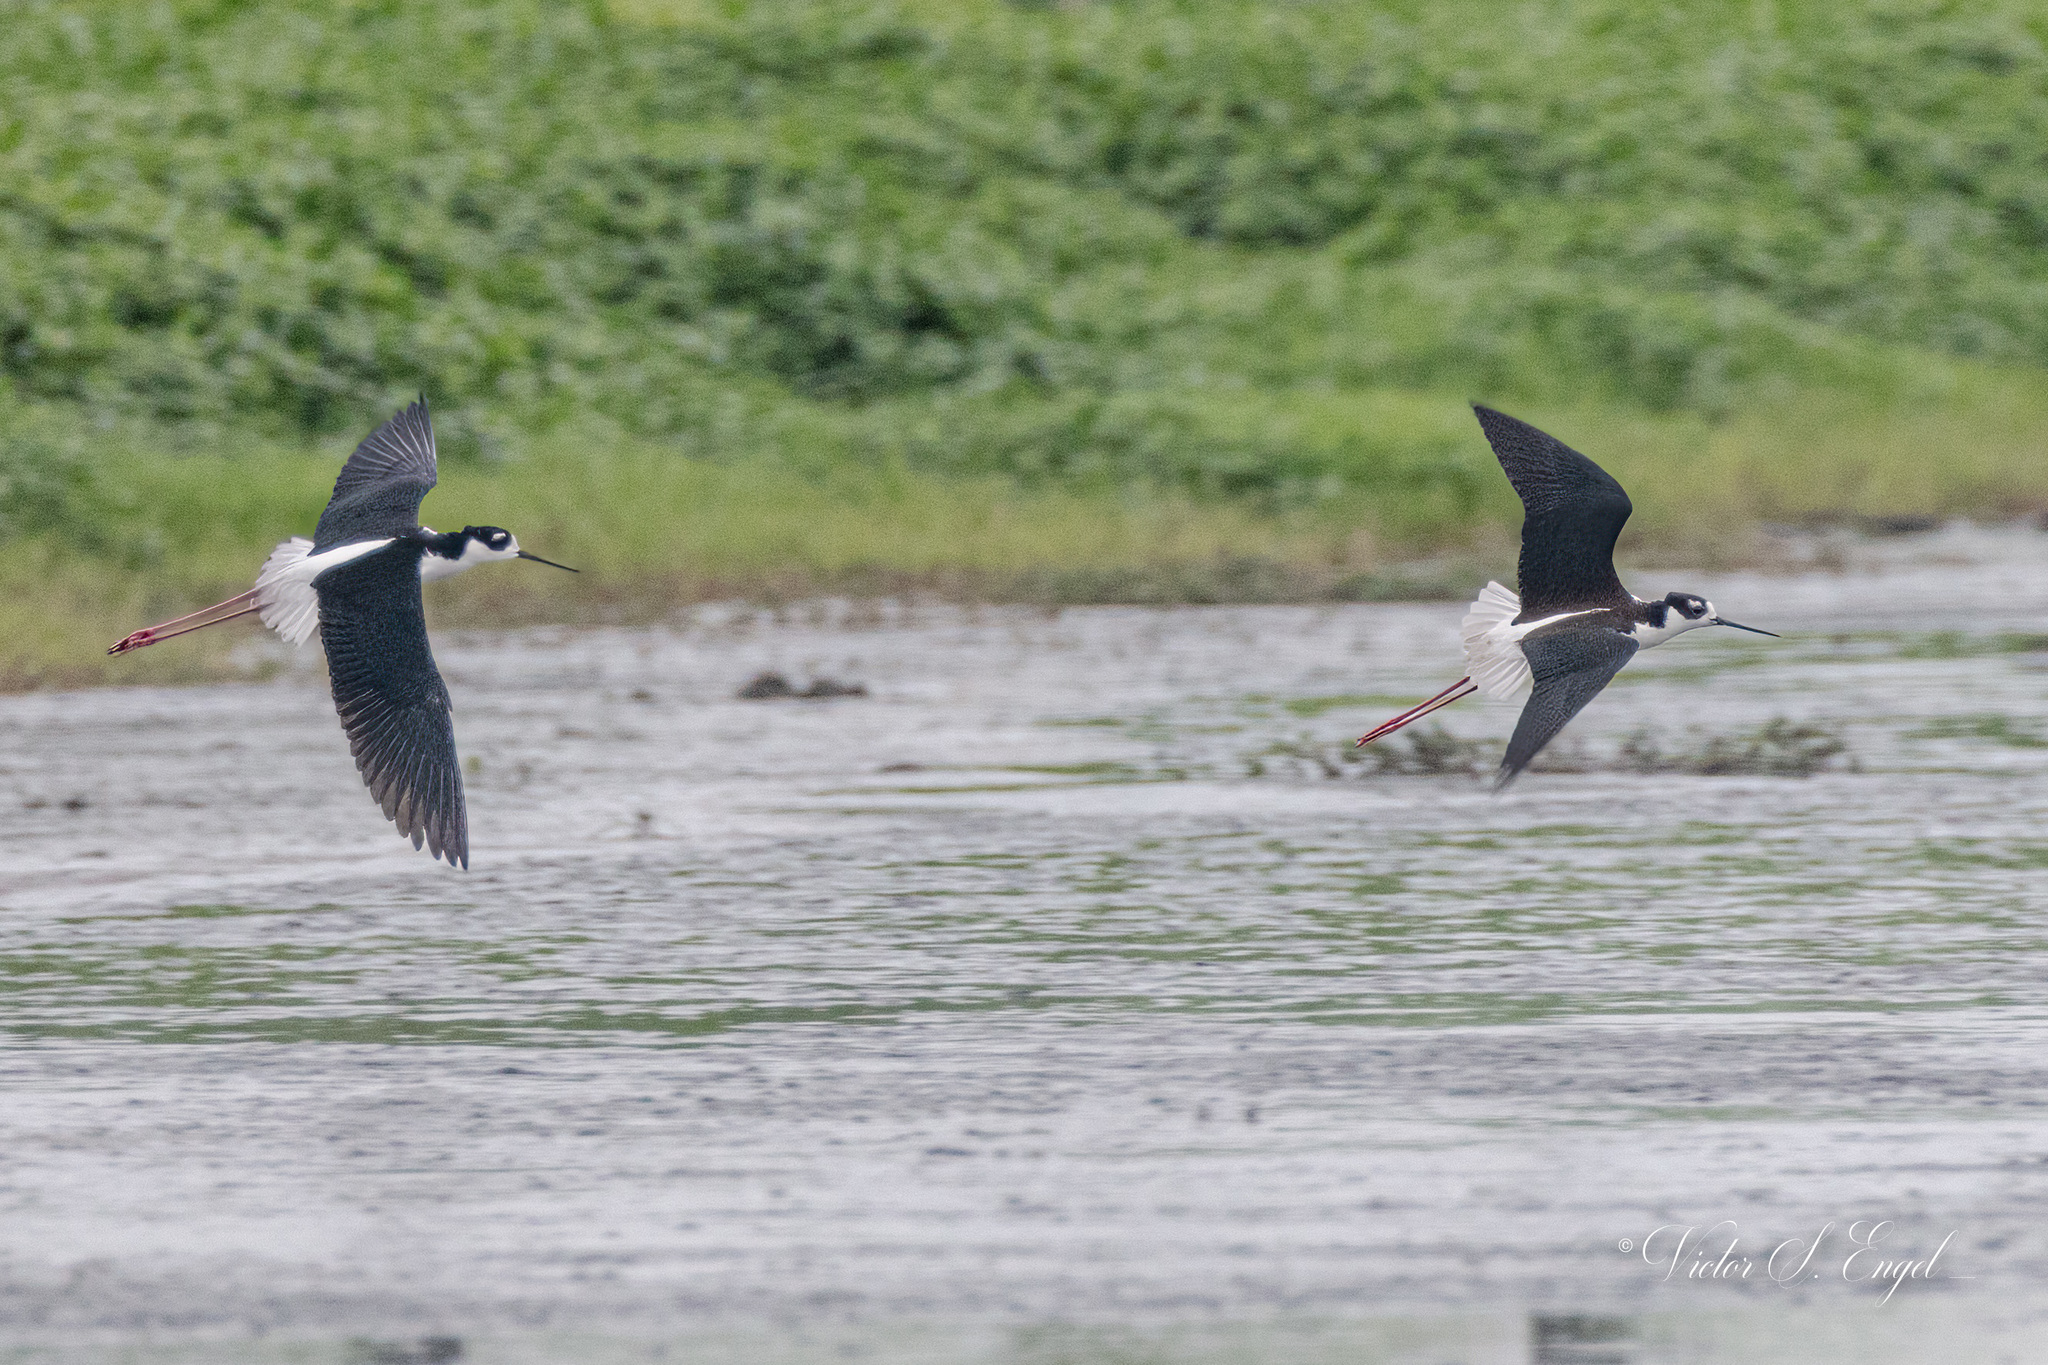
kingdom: Animalia
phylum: Chordata
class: Aves
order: Charadriiformes
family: Recurvirostridae
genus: Himantopus
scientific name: Himantopus mexicanus
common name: Black-necked stilt
